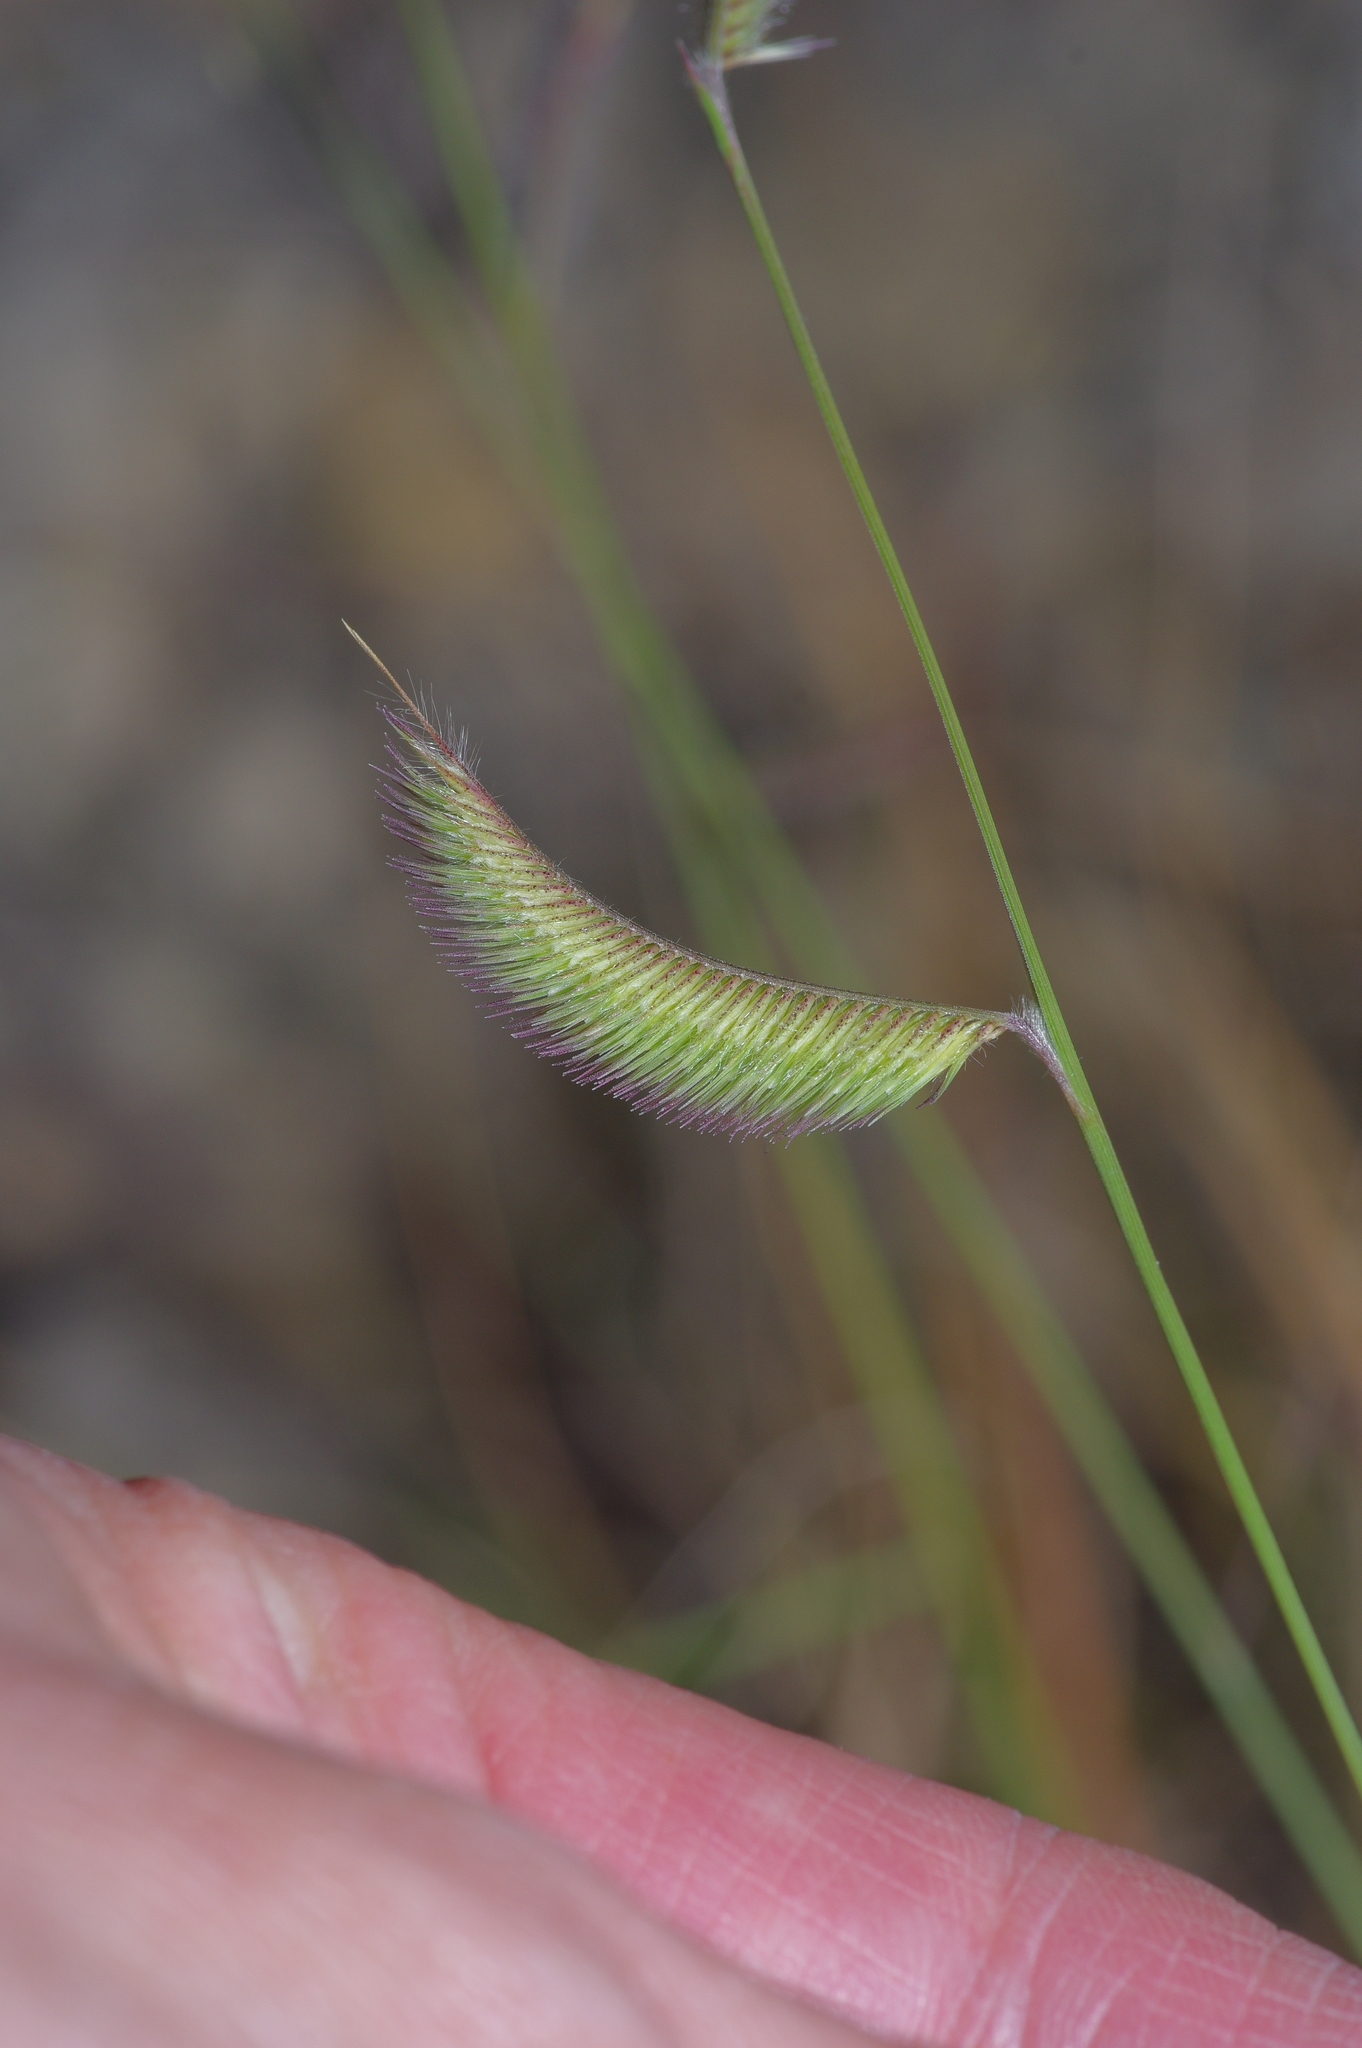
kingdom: Plantae
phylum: Tracheophyta
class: Liliopsida
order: Poales
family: Poaceae
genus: Bouteloua
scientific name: Bouteloua hirsuta
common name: Hairy grama
